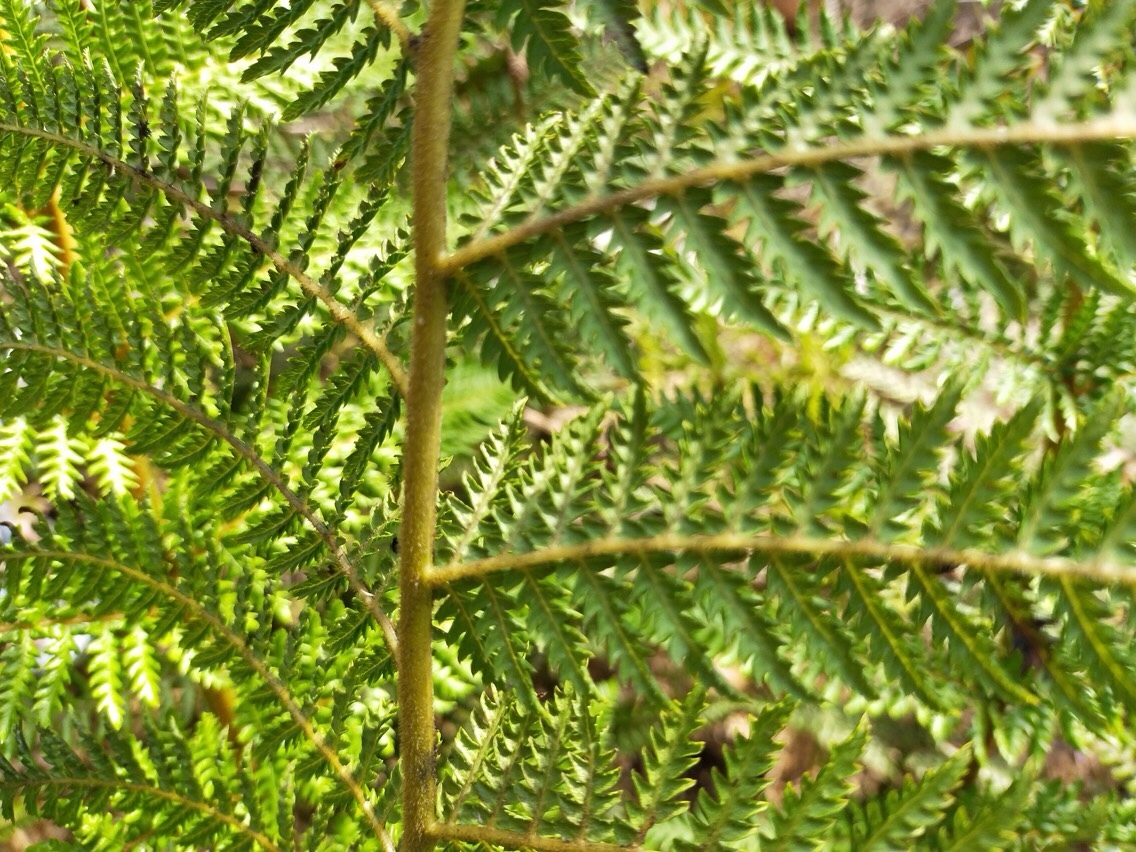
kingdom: Plantae
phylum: Tracheophyta
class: Polypodiopsida
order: Cyatheales
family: Dicksoniaceae
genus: Dicksonia
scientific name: Dicksonia lanata
